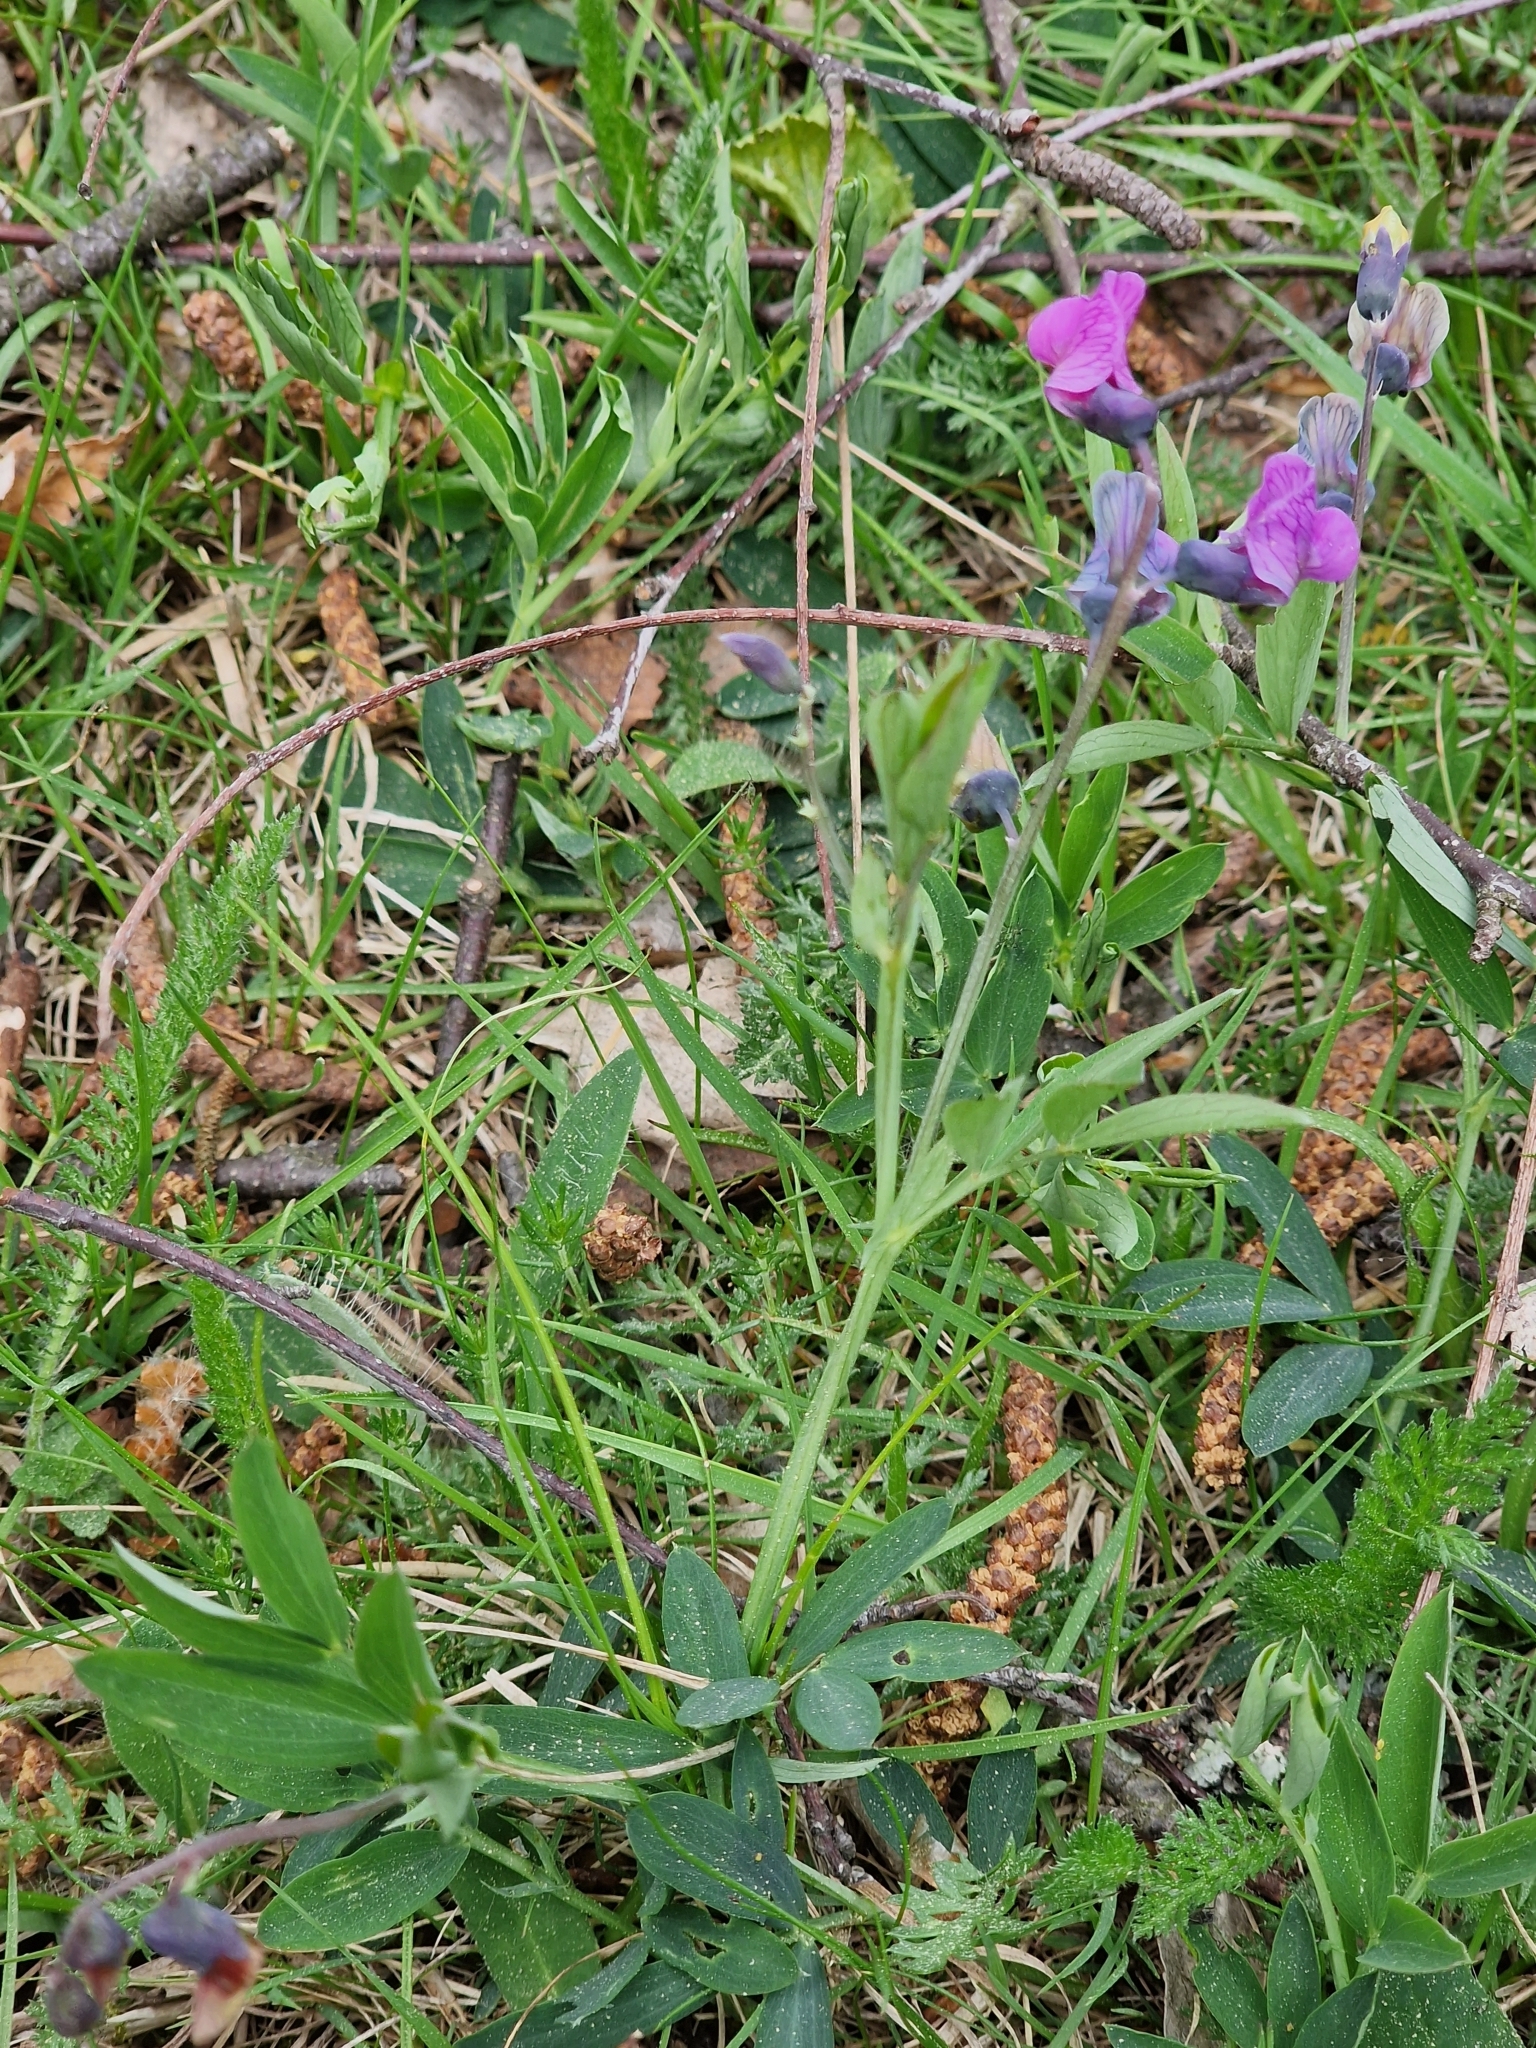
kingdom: Plantae
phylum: Tracheophyta
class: Magnoliopsida
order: Fabales
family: Fabaceae
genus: Lathyrus
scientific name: Lathyrus linifolius
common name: Bitter-vetch
